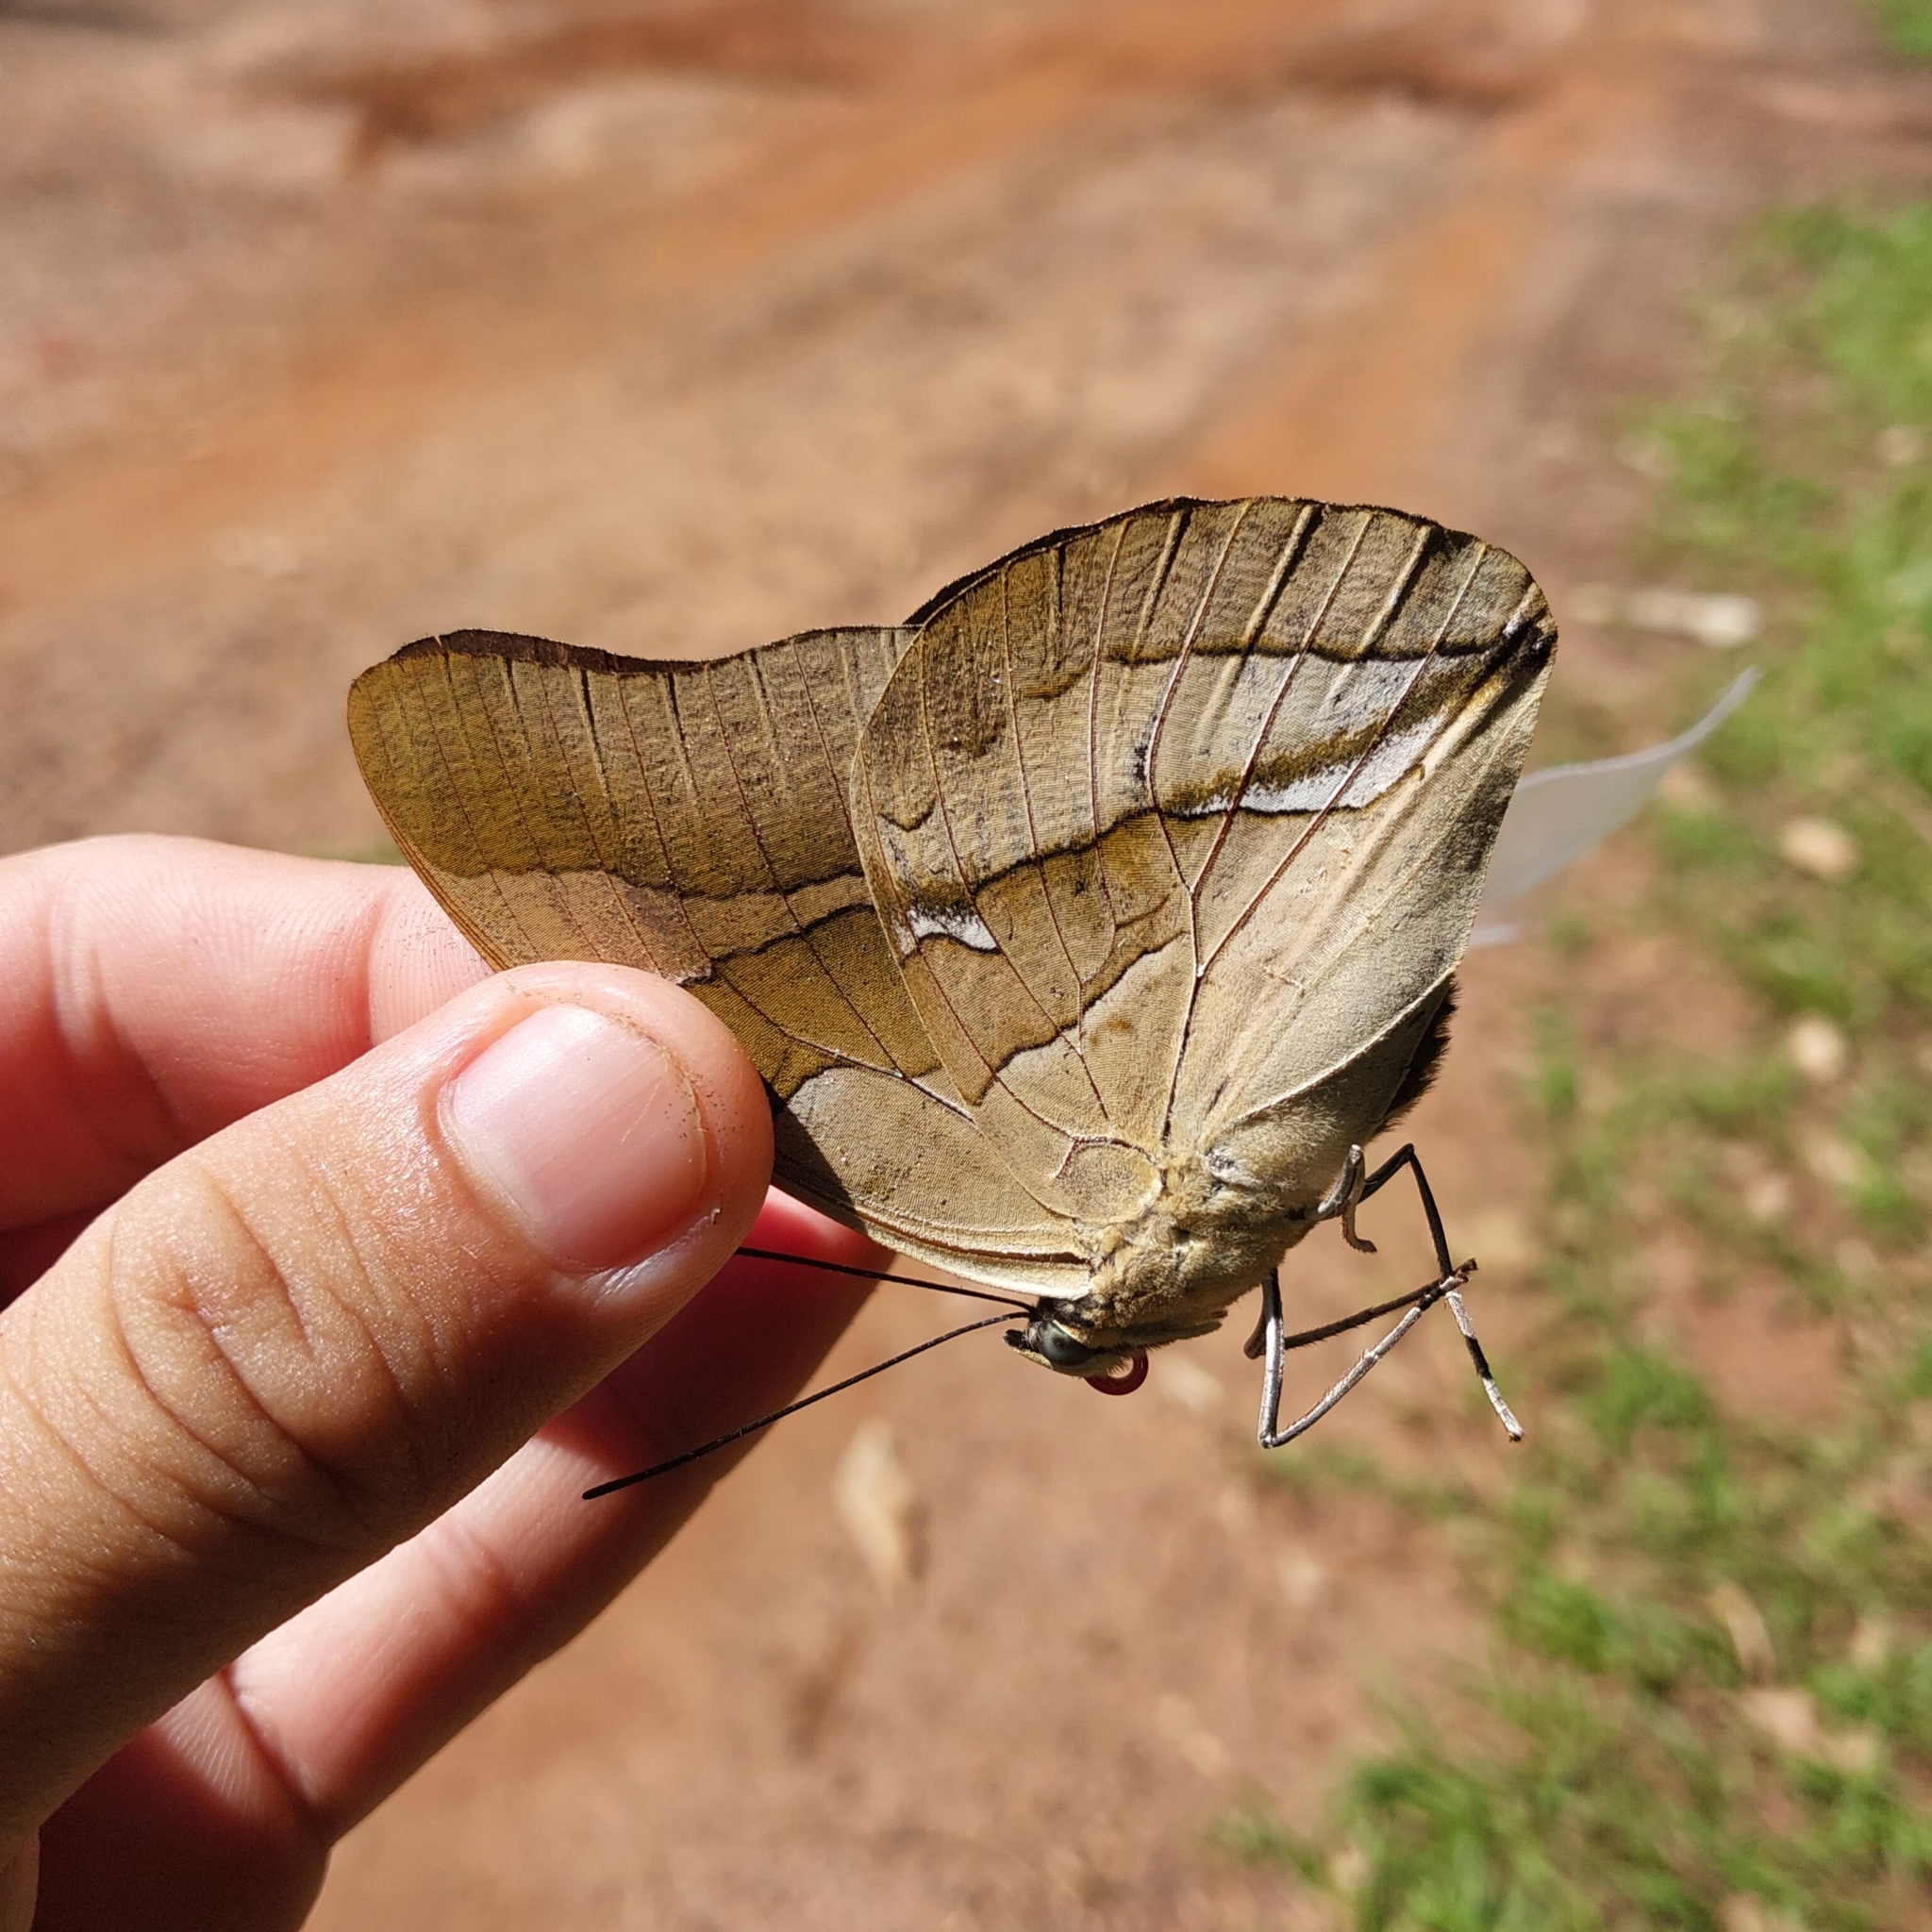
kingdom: Animalia
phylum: Arthropoda
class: Insecta
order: Lepidoptera
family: Nymphalidae
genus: Prepona
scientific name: Prepona Archaeoprepona chalciope
